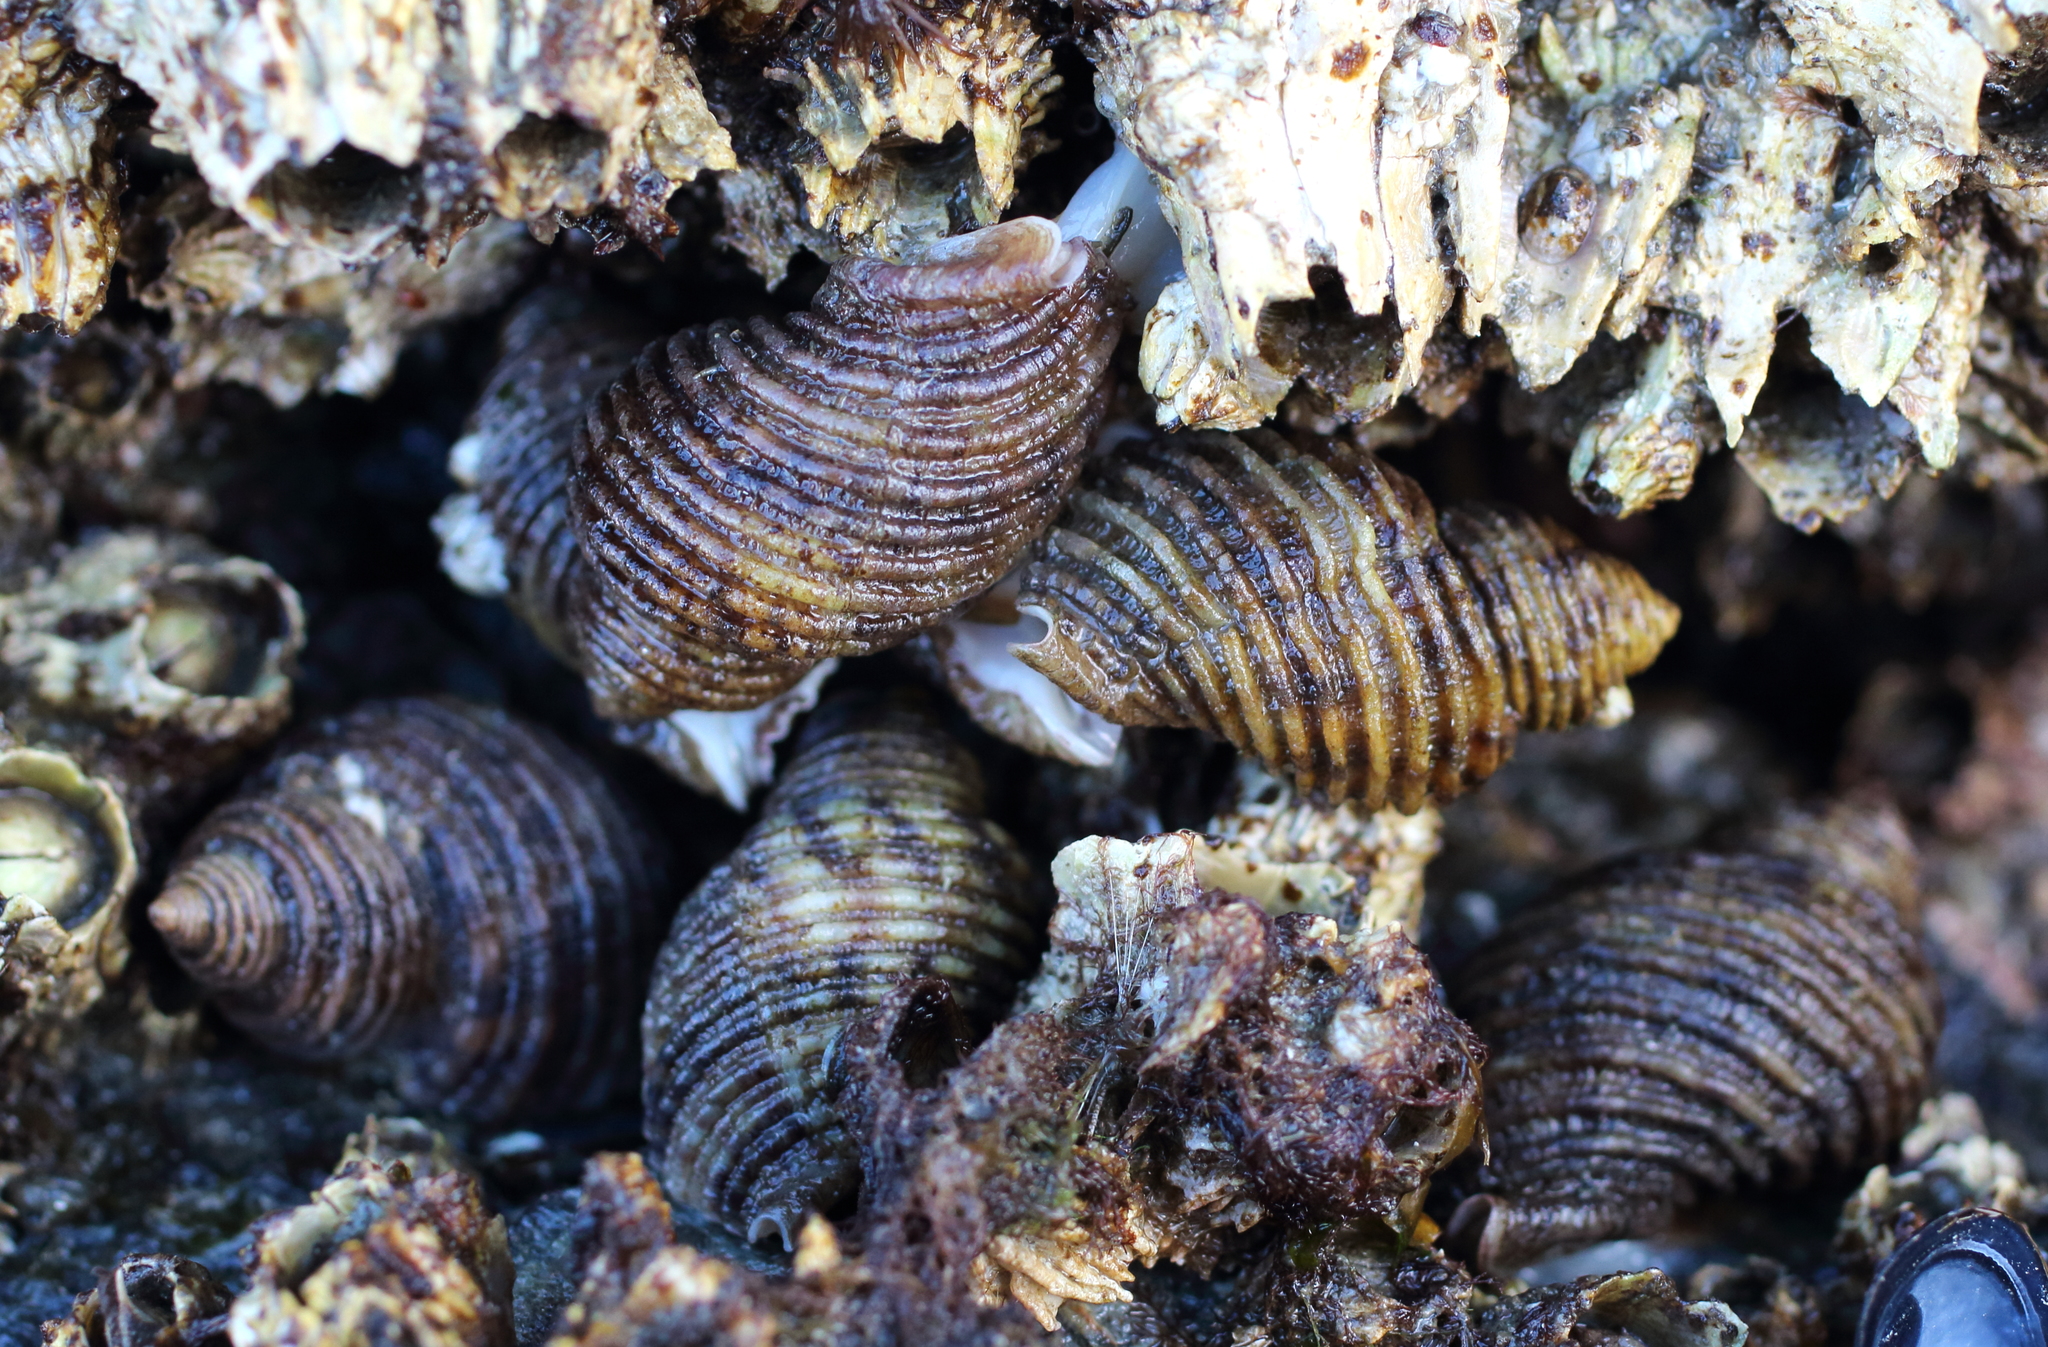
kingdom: Animalia
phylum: Mollusca
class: Gastropoda
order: Neogastropoda
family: Muricidae
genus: Nucella
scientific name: Nucella canaliculata
